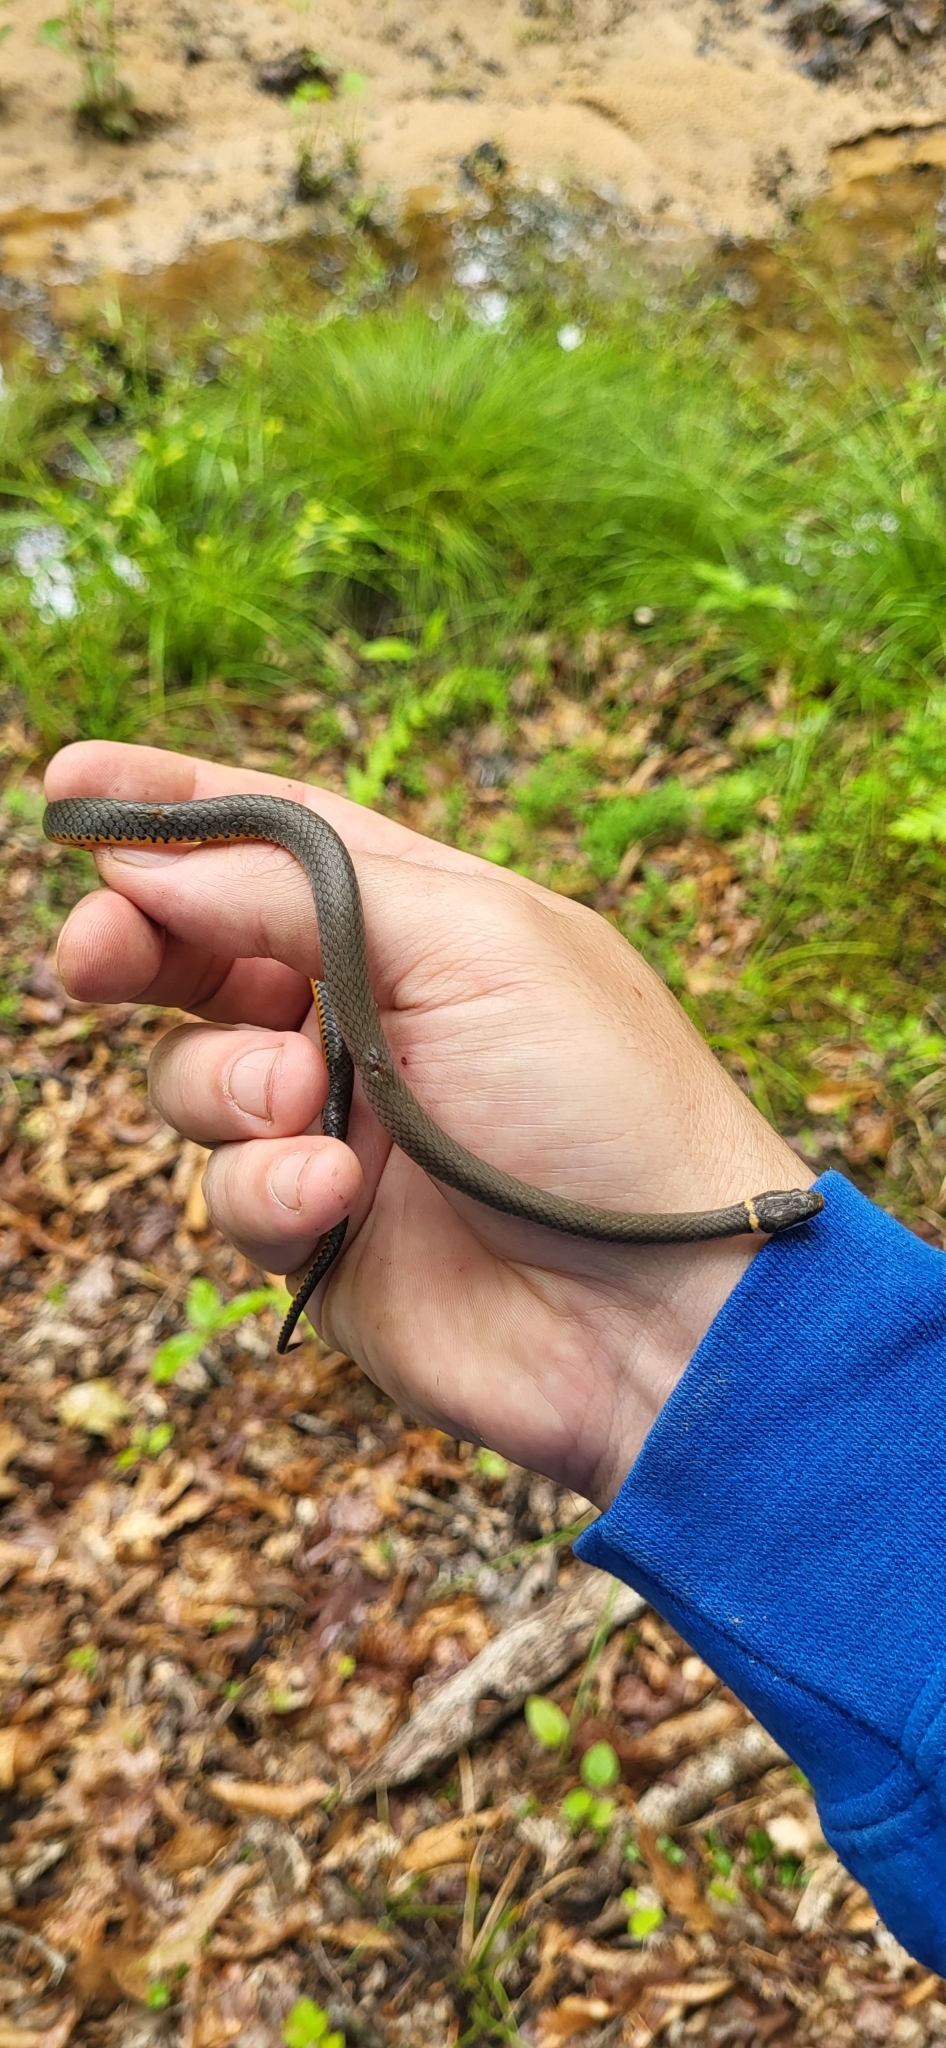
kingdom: Animalia
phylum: Chordata
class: Squamata
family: Colubridae
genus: Diadophis
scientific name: Diadophis punctatus
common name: Ringneck snake
